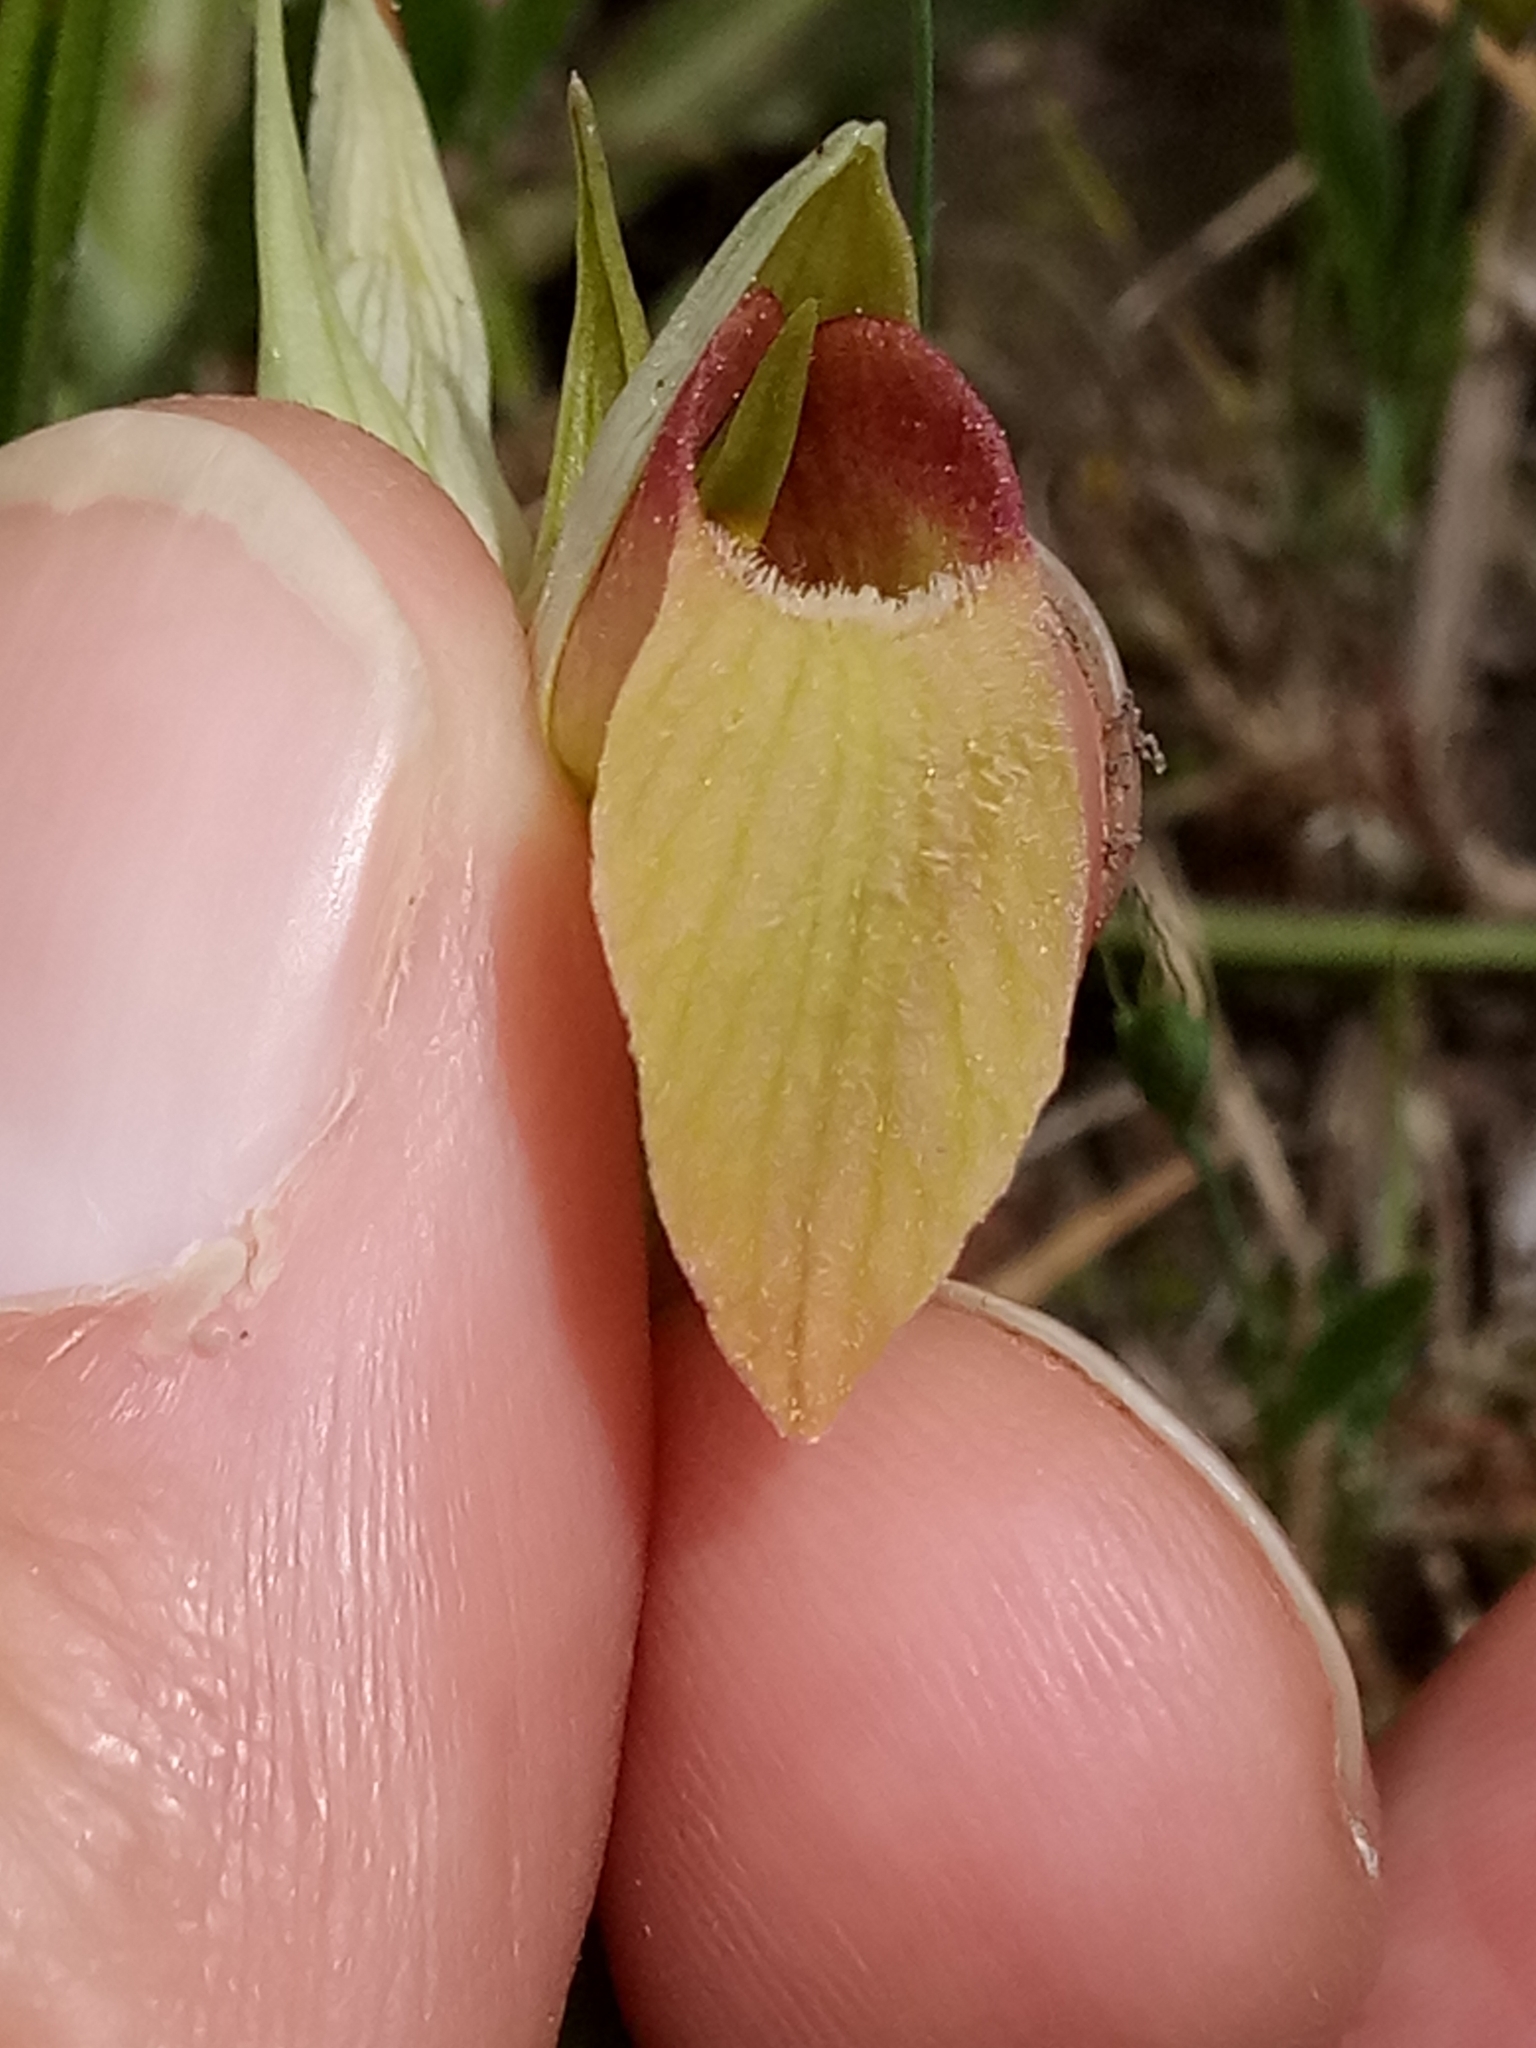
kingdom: Plantae
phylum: Tracheophyta
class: Liliopsida
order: Asparagales
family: Orchidaceae
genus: Serapias
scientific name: Serapias lingua
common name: Tongue-orchid
